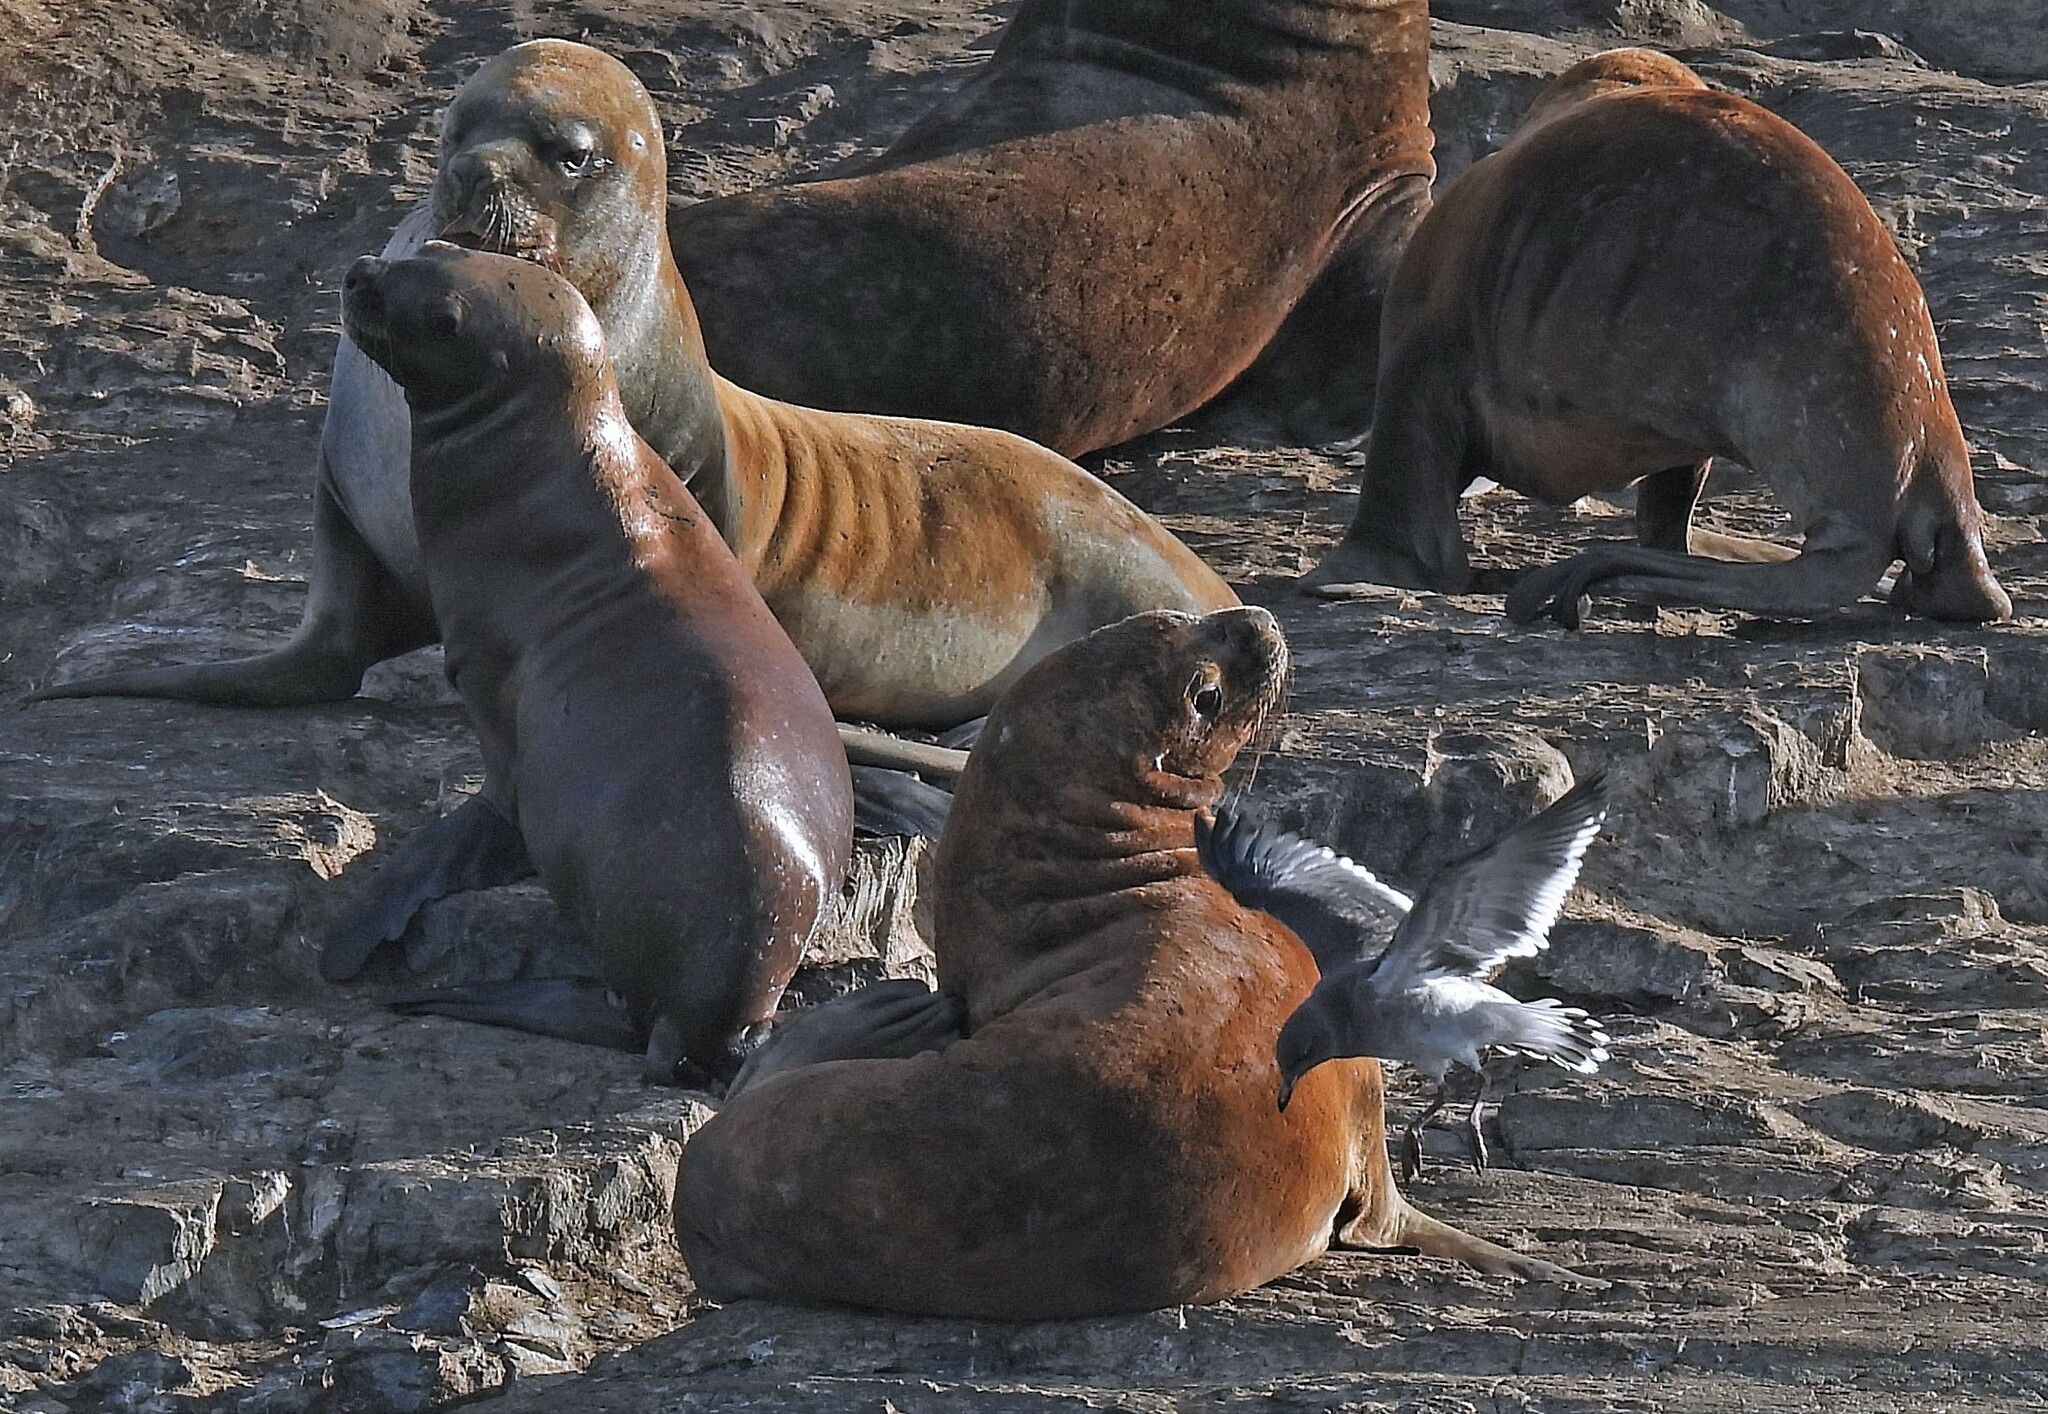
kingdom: Animalia
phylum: Chordata
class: Mammalia
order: Carnivora
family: Otariidae
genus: Otaria
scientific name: Otaria byronia
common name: South american sea lion
